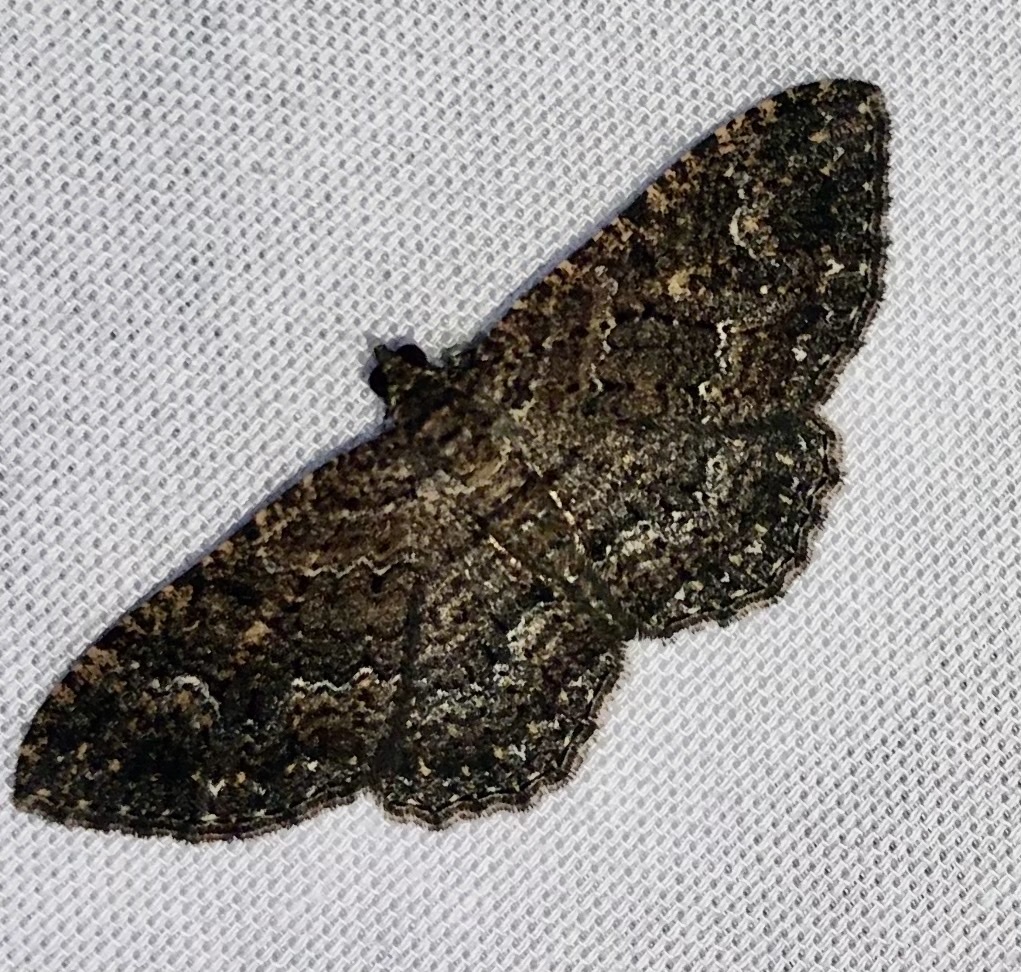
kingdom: Animalia
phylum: Arthropoda
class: Insecta
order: Lepidoptera
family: Geometridae
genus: Disclisioprocta
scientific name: Disclisioprocta stellata
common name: Somber carpet
